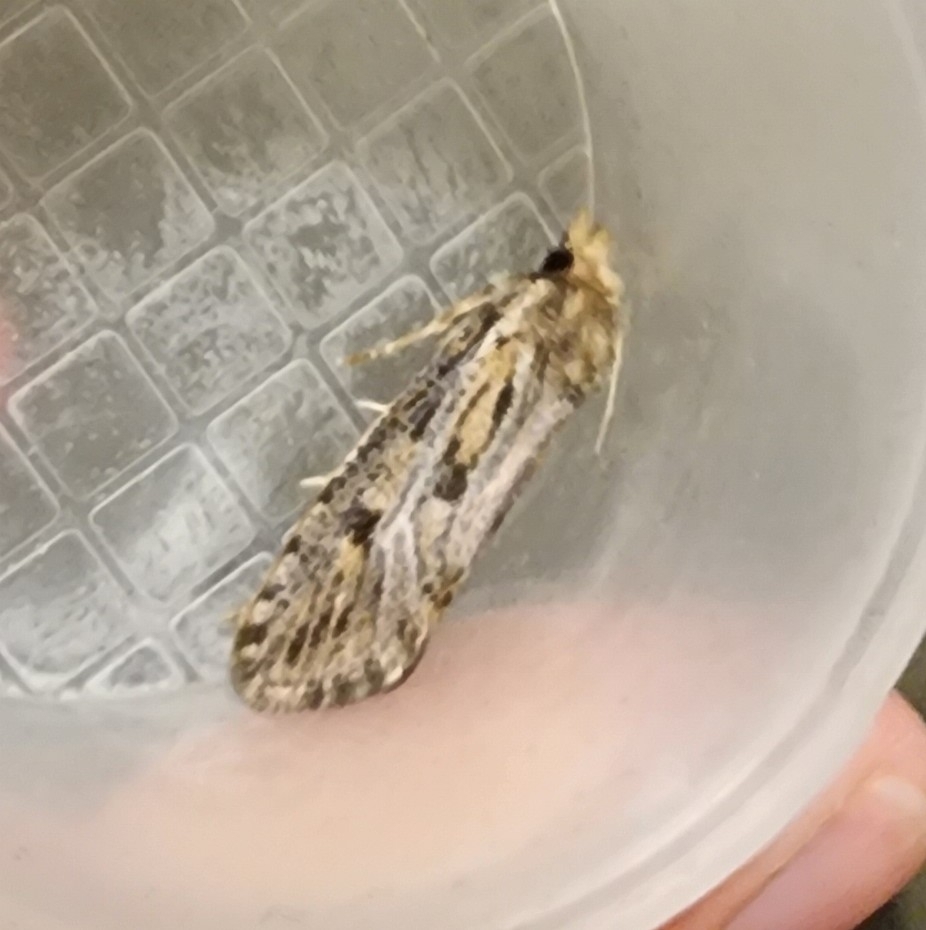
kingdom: Animalia
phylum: Arthropoda
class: Insecta
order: Lepidoptera
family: Tineidae
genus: Acrolophus
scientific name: Acrolophus popeanella
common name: Clemens' grass tubeworm moth
